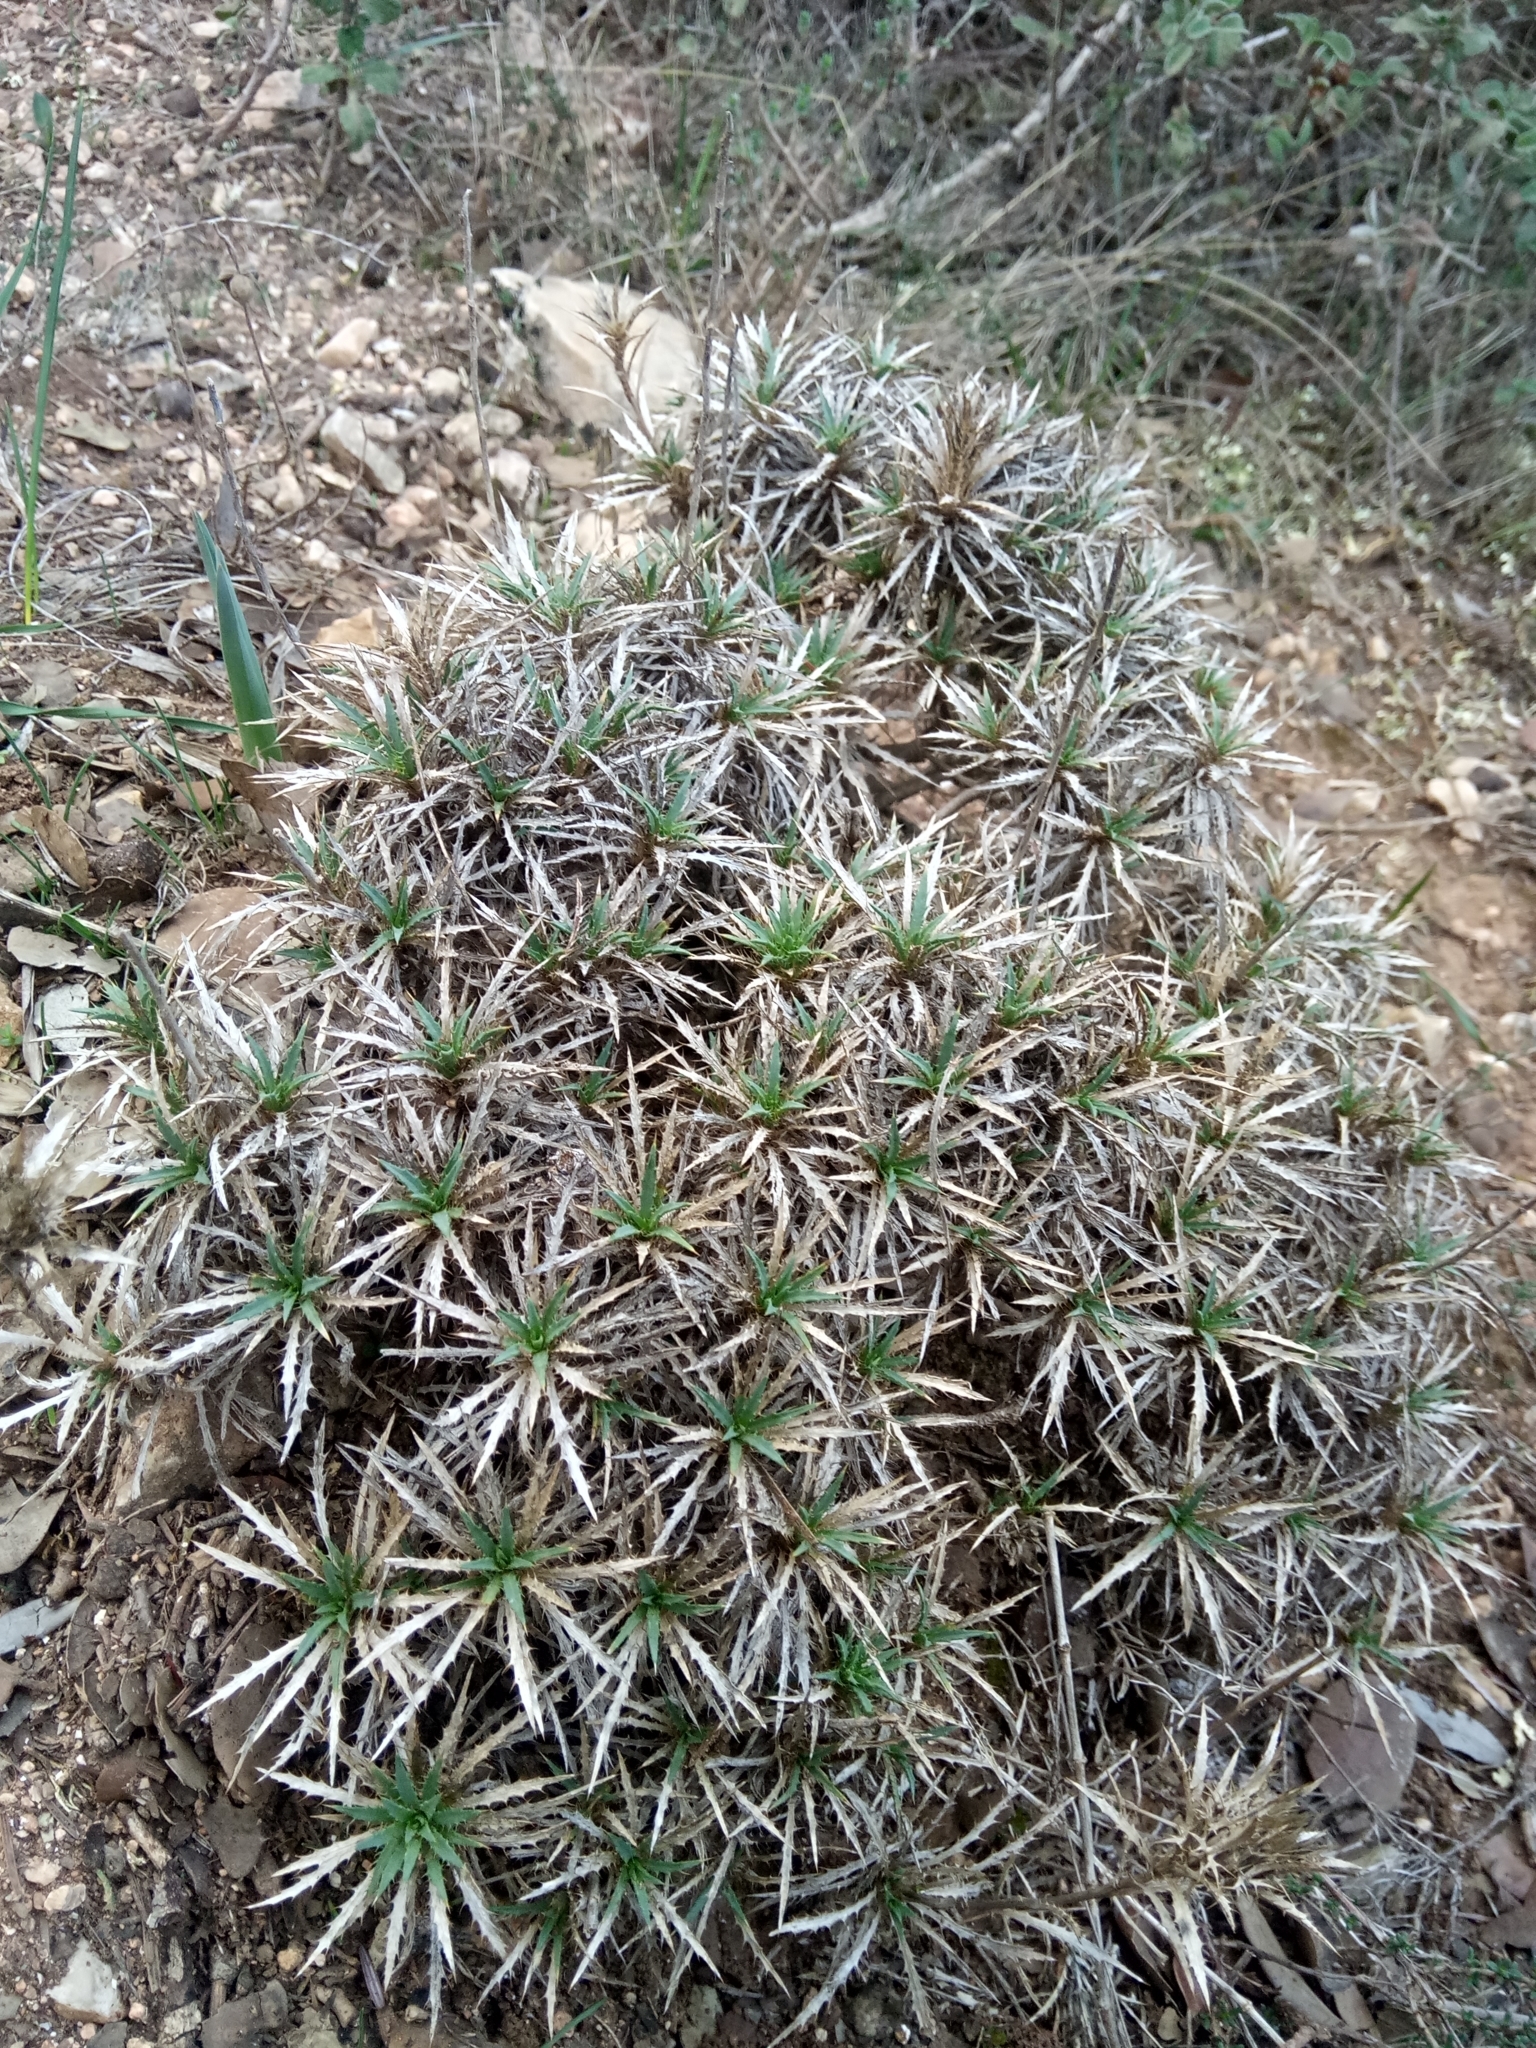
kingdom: Plantae
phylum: Tracheophyta
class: Magnoliopsida
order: Asterales
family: Asteraceae
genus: Atractylis
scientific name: Atractylis caespitosa
